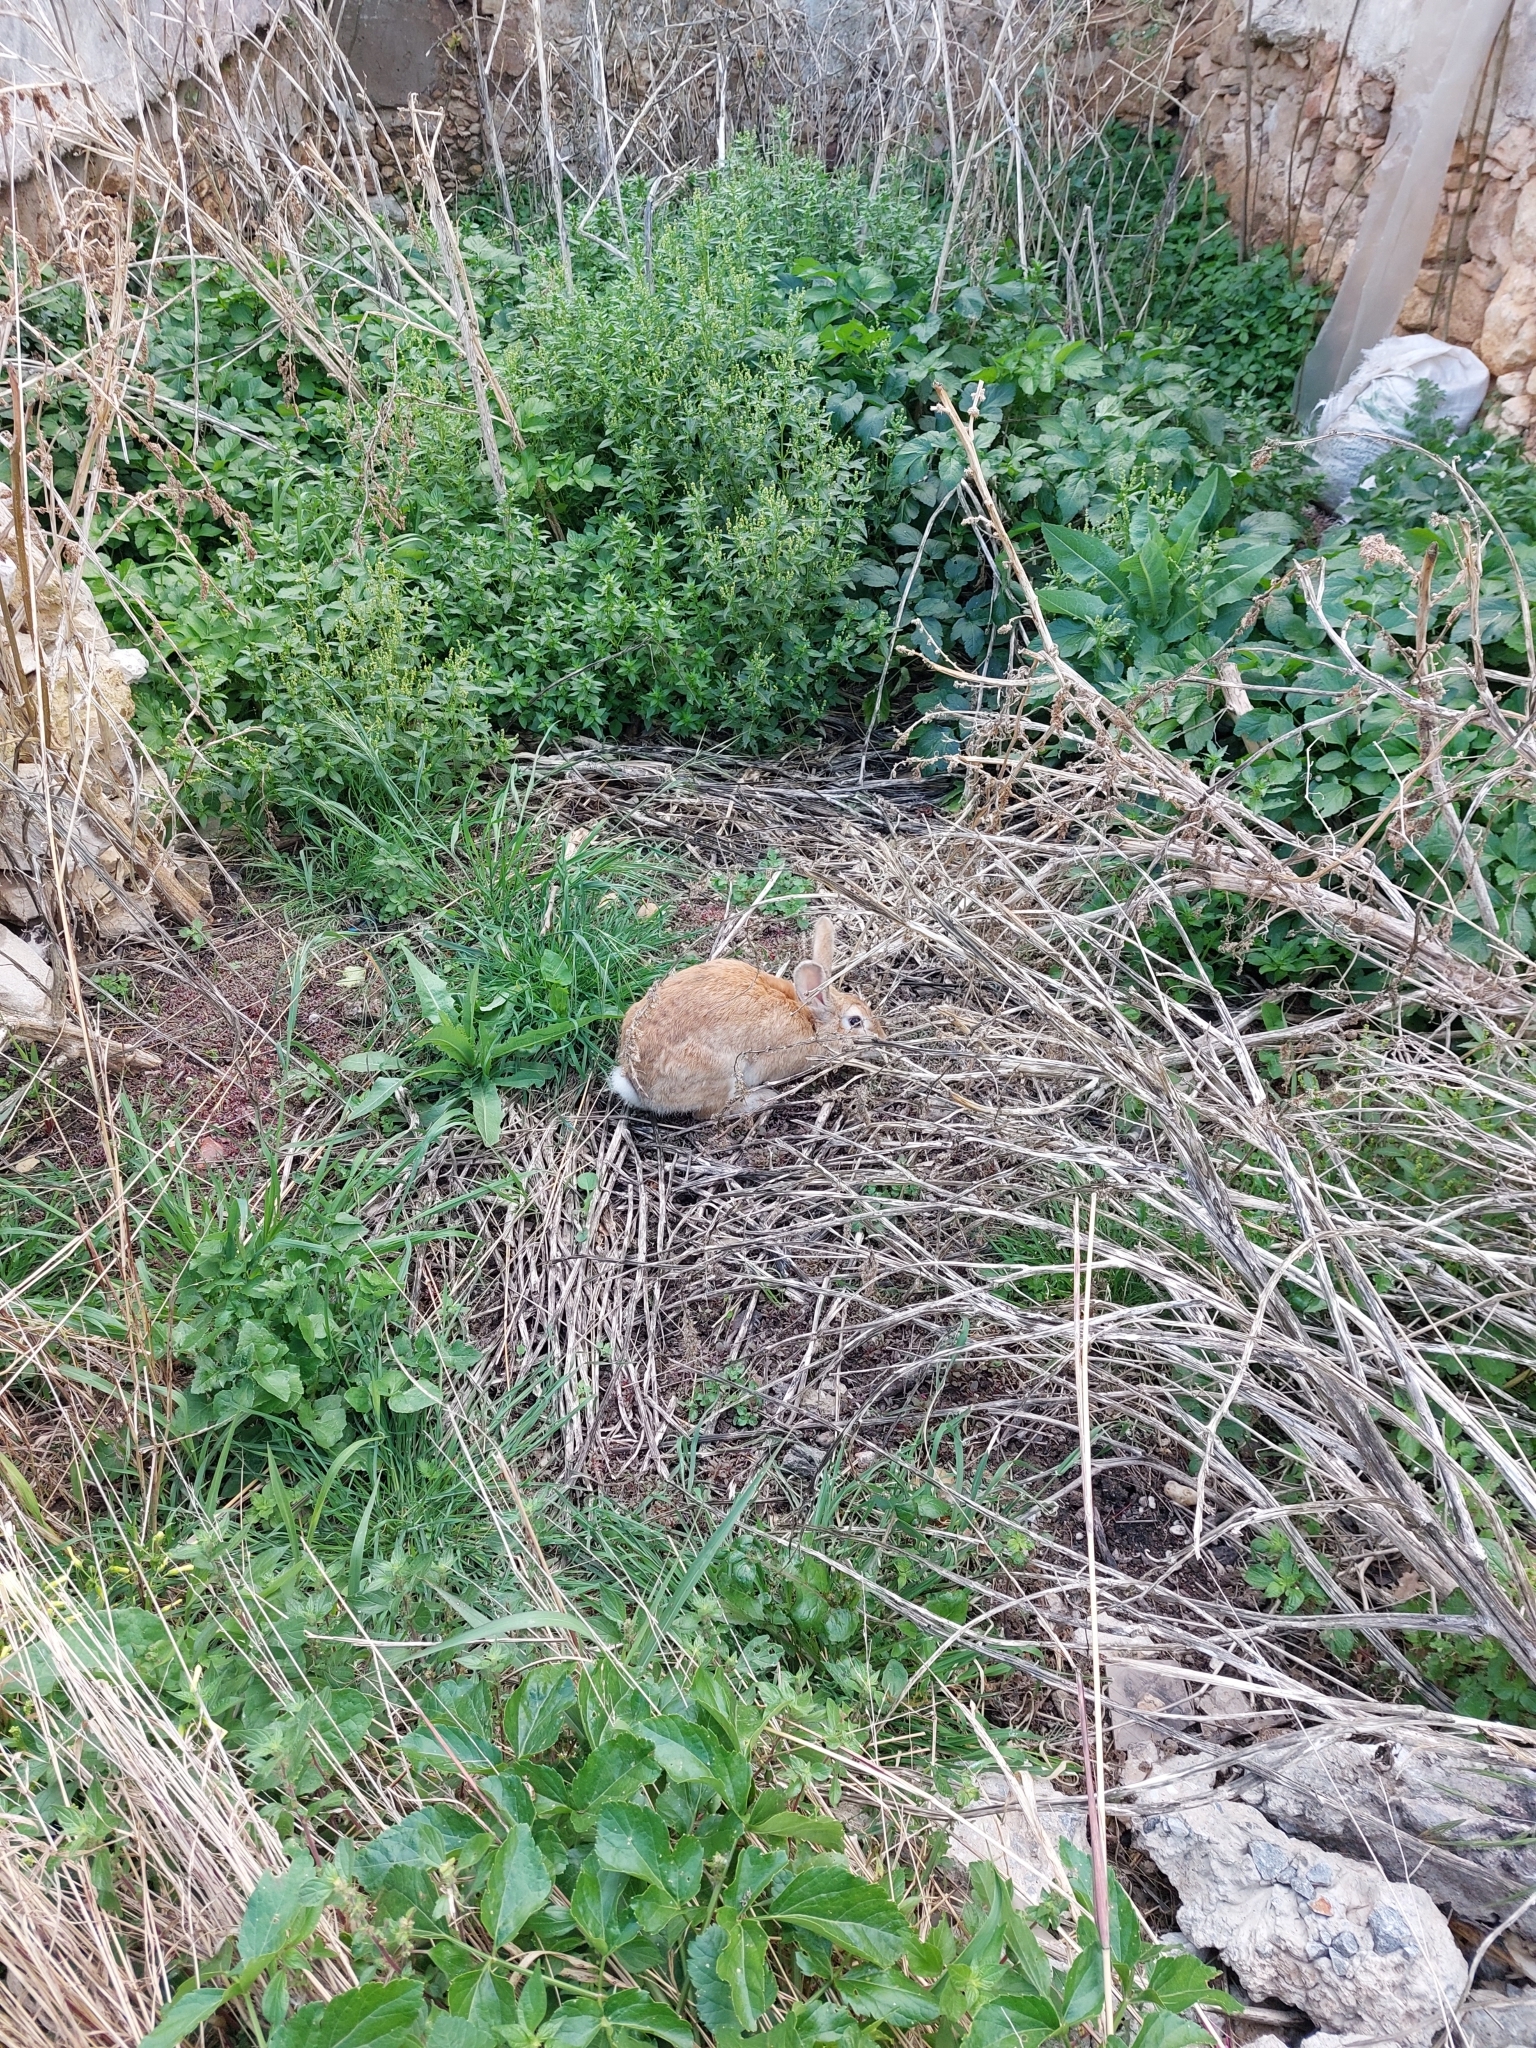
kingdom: Animalia
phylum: Chordata
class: Mammalia
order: Lagomorpha
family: Leporidae
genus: Oryctolagus
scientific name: Oryctolagus cuniculus
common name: European rabbit
